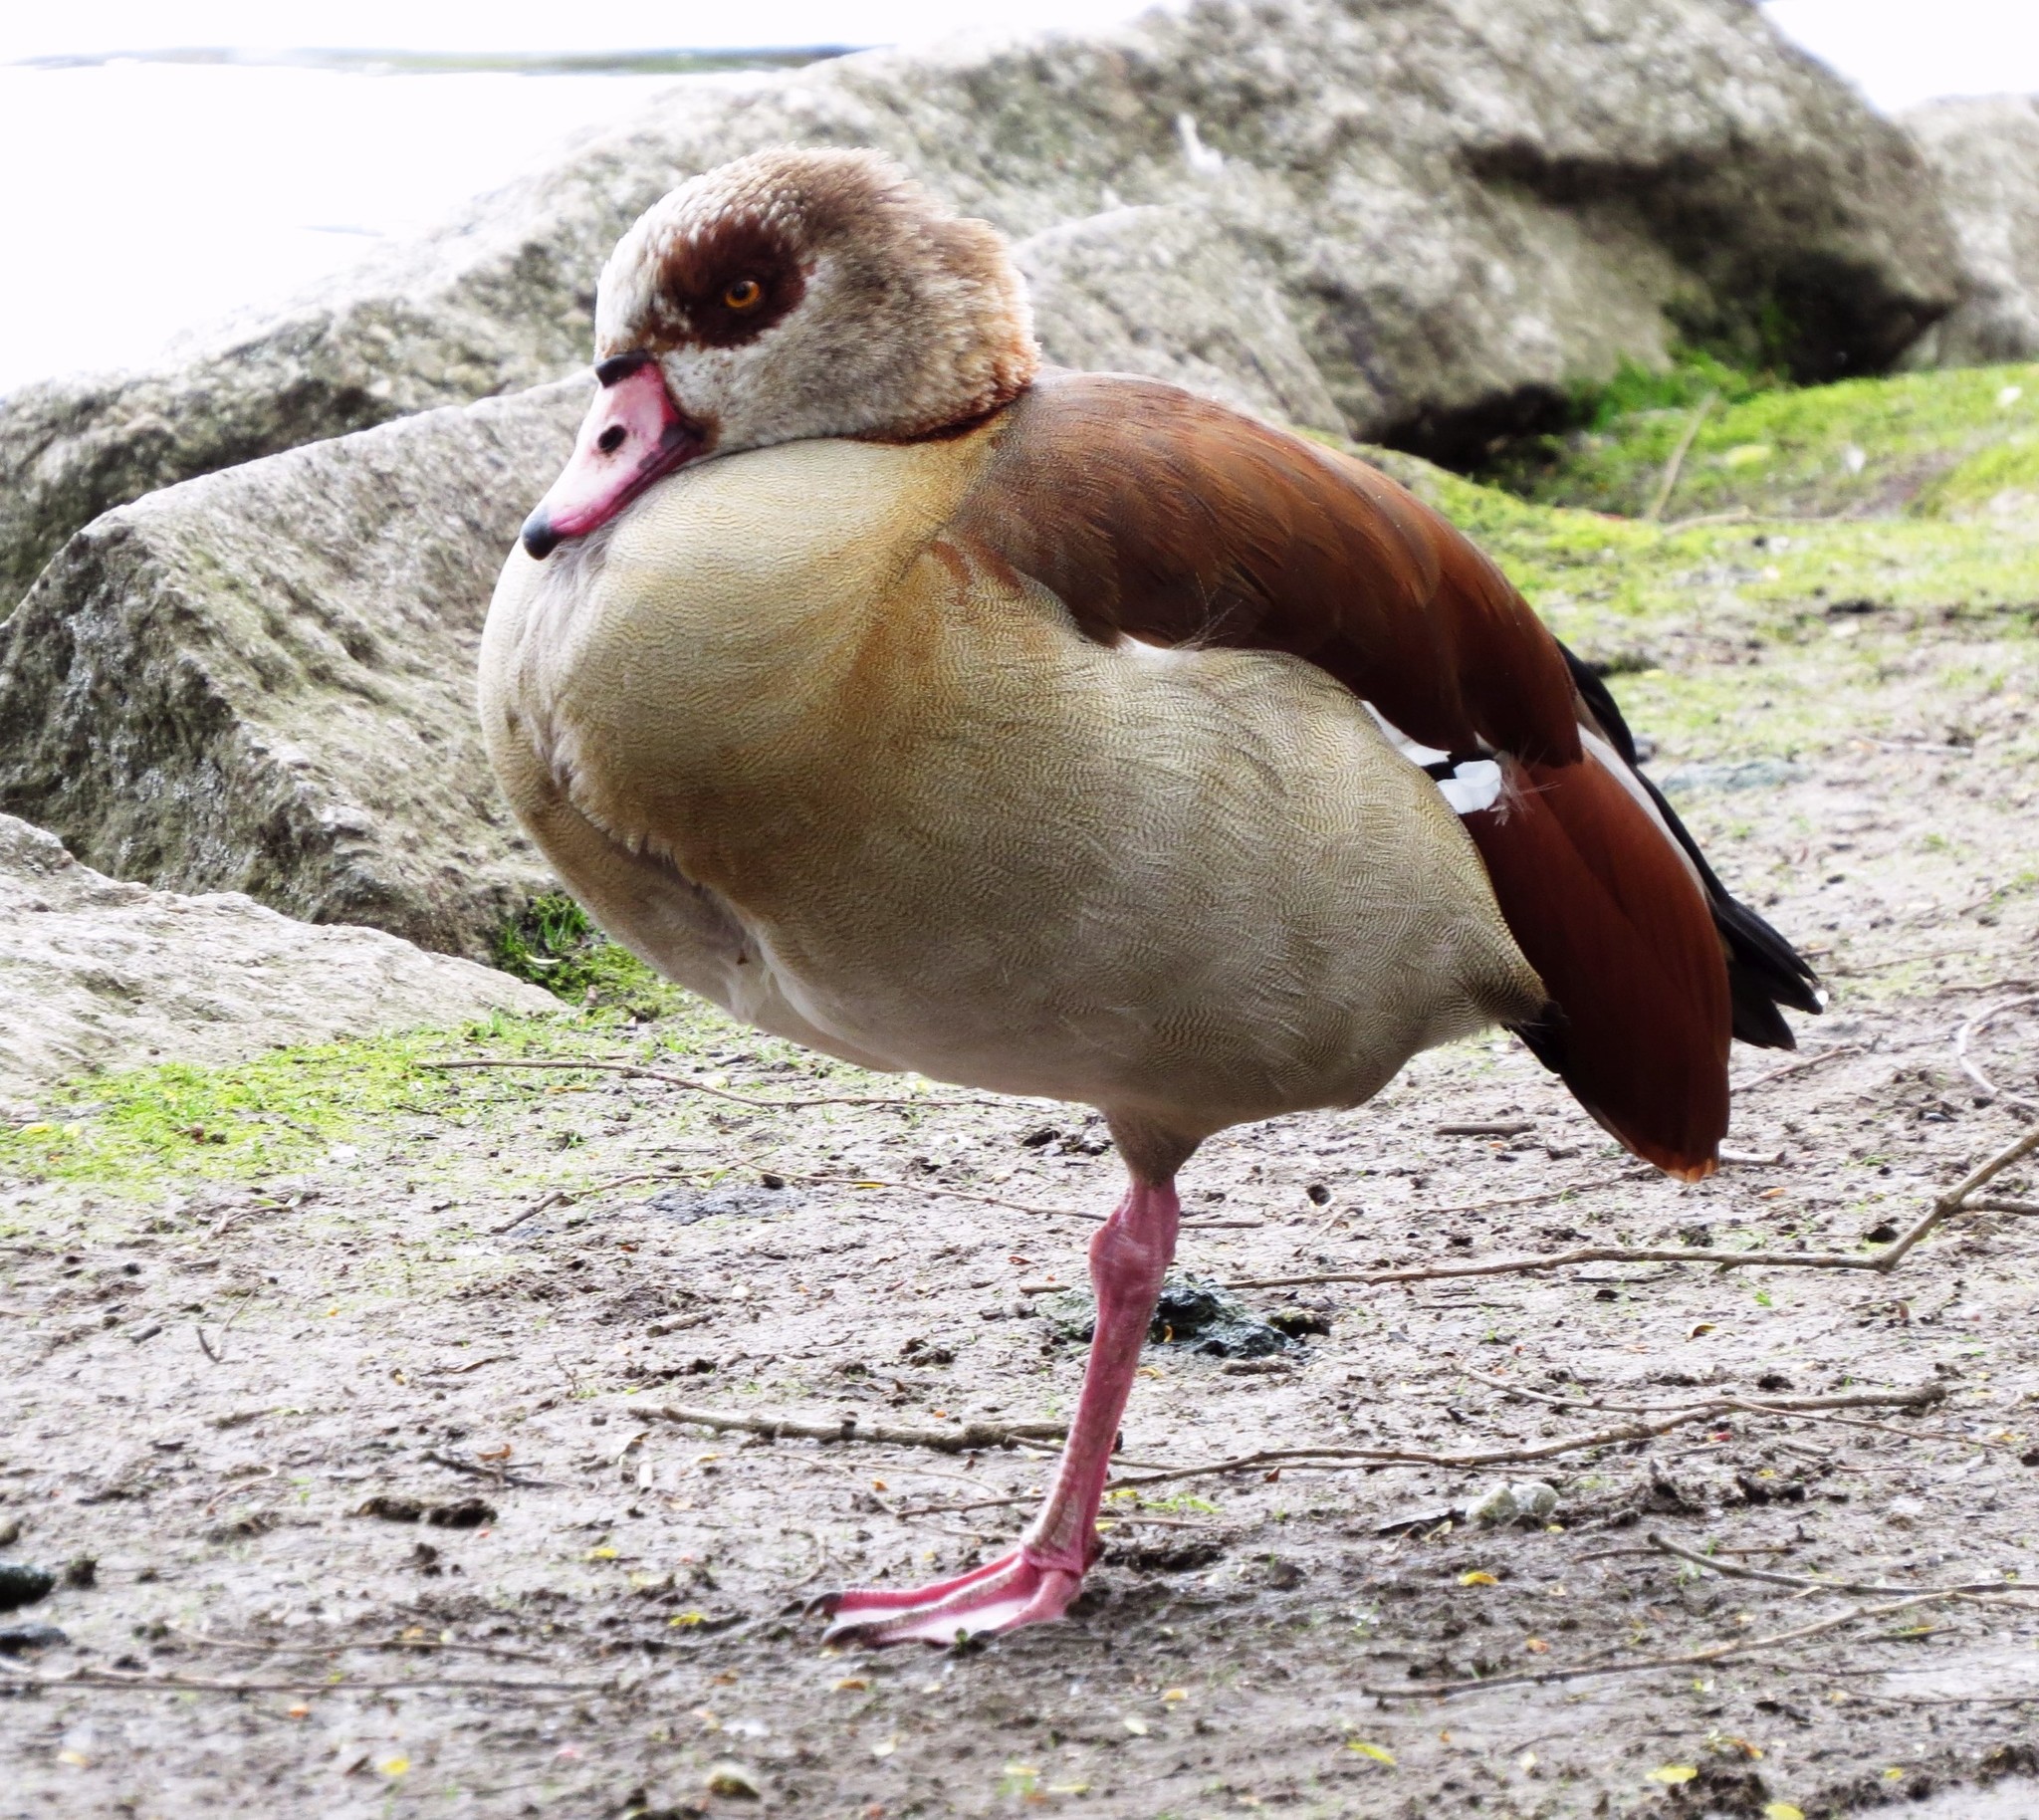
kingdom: Animalia
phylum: Chordata
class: Aves
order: Anseriformes
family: Anatidae
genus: Alopochen
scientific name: Alopochen aegyptiaca
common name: Egyptian goose
